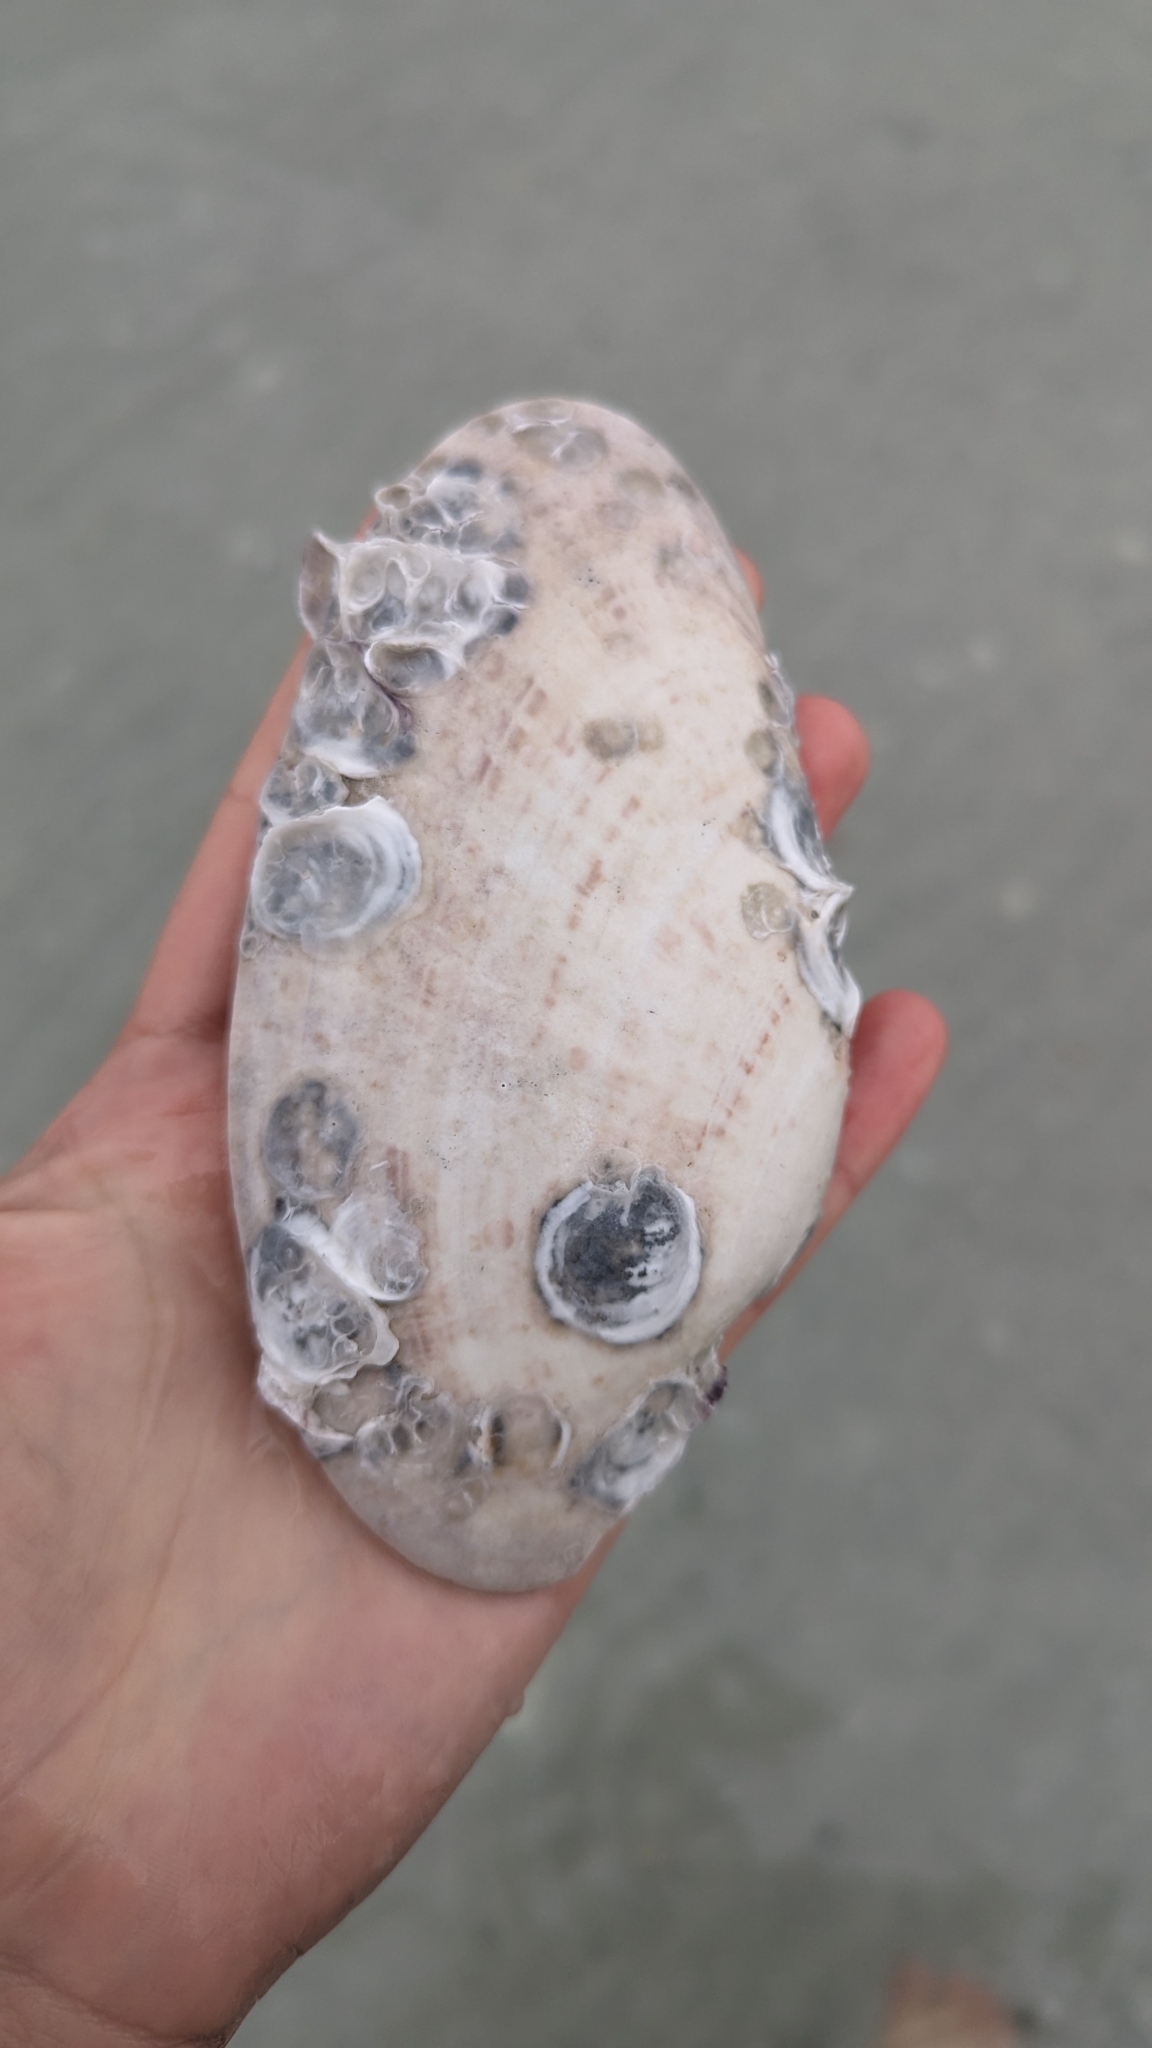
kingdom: Animalia
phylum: Mollusca
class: Bivalvia
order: Venerida
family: Veneridae
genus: Macrocallista
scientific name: Macrocallista nimbosa
